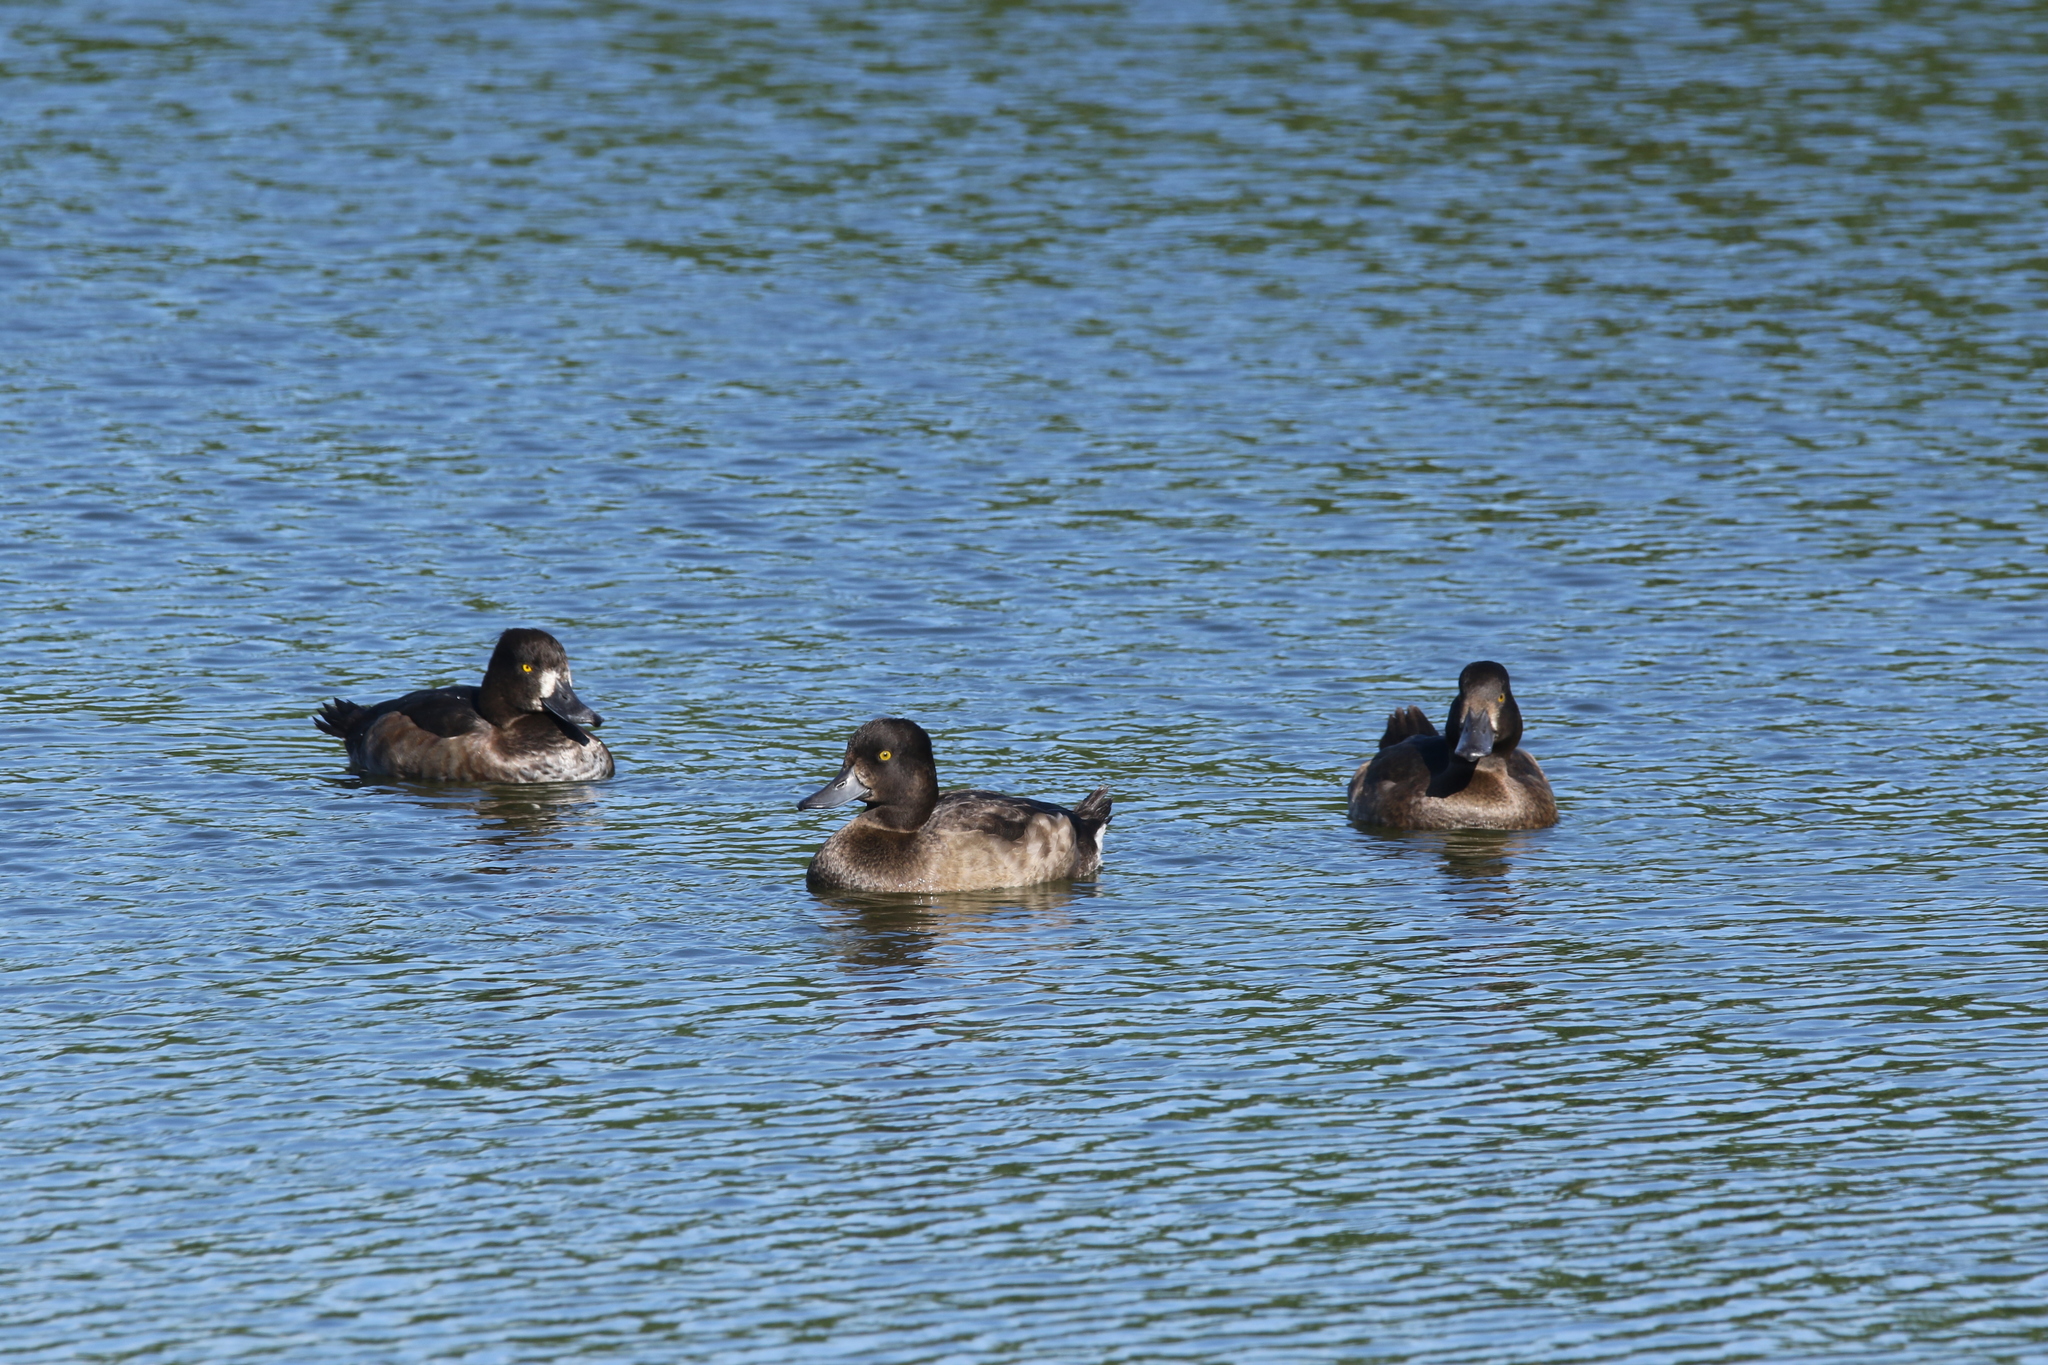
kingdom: Animalia
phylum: Chordata
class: Aves
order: Anseriformes
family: Anatidae
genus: Aythya
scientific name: Aythya fuligula
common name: Tufted duck
